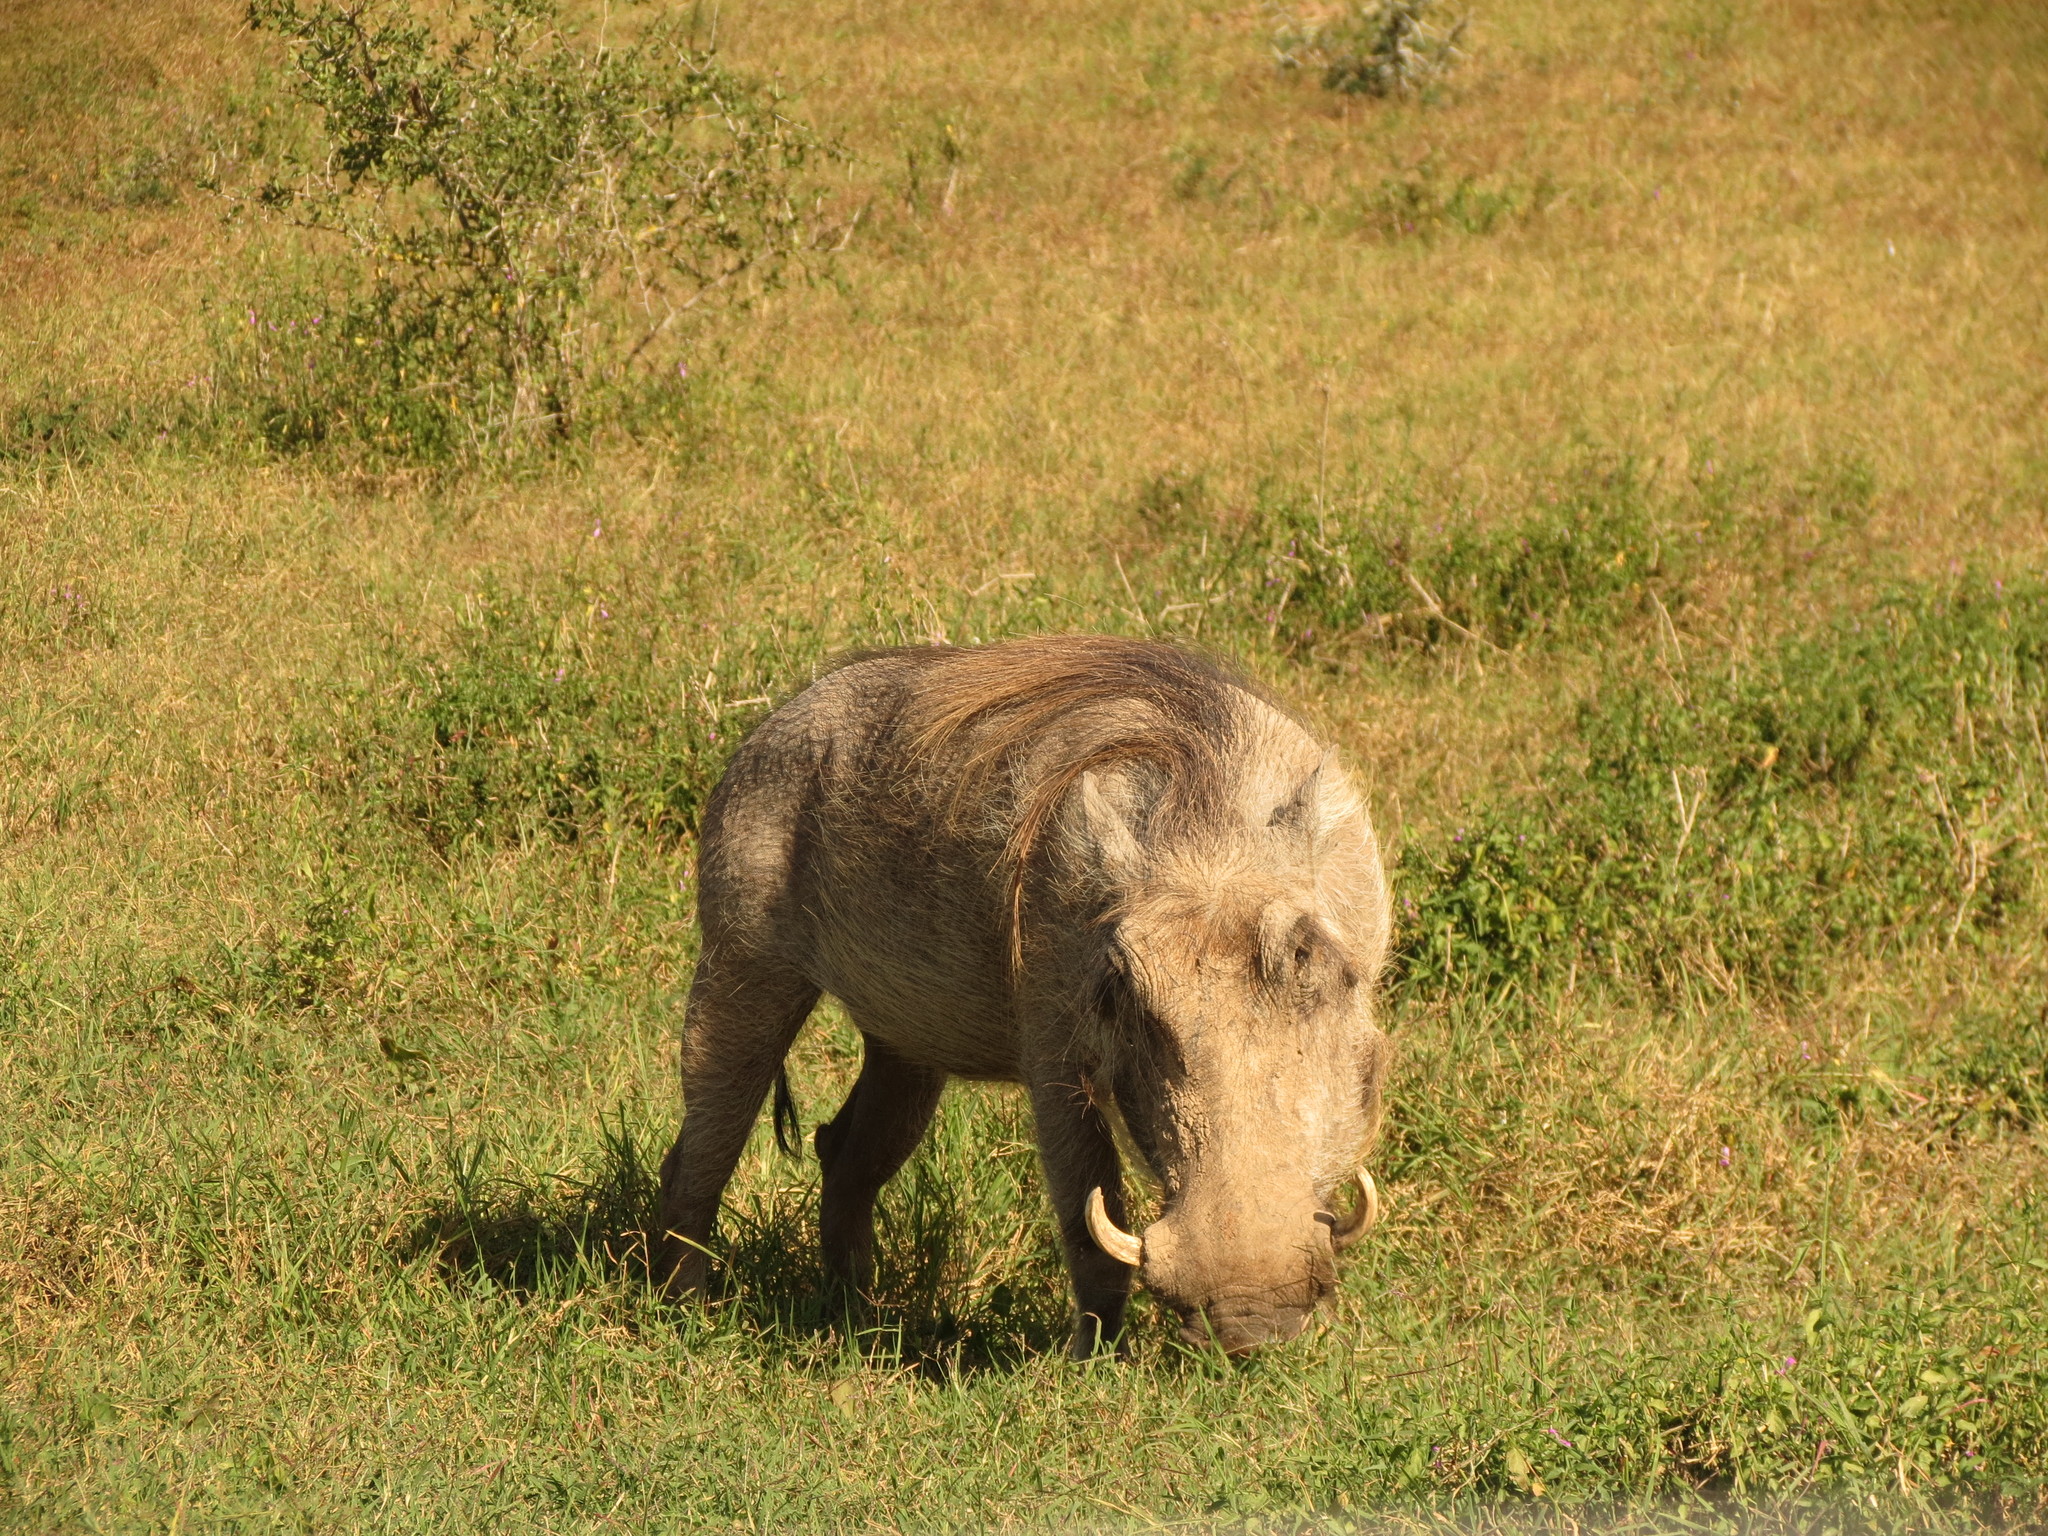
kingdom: Animalia
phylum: Chordata
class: Mammalia
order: Artiodactyla
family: Suidae
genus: Phacochoerus
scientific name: Phacochoerus africanus
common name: Common warthog
